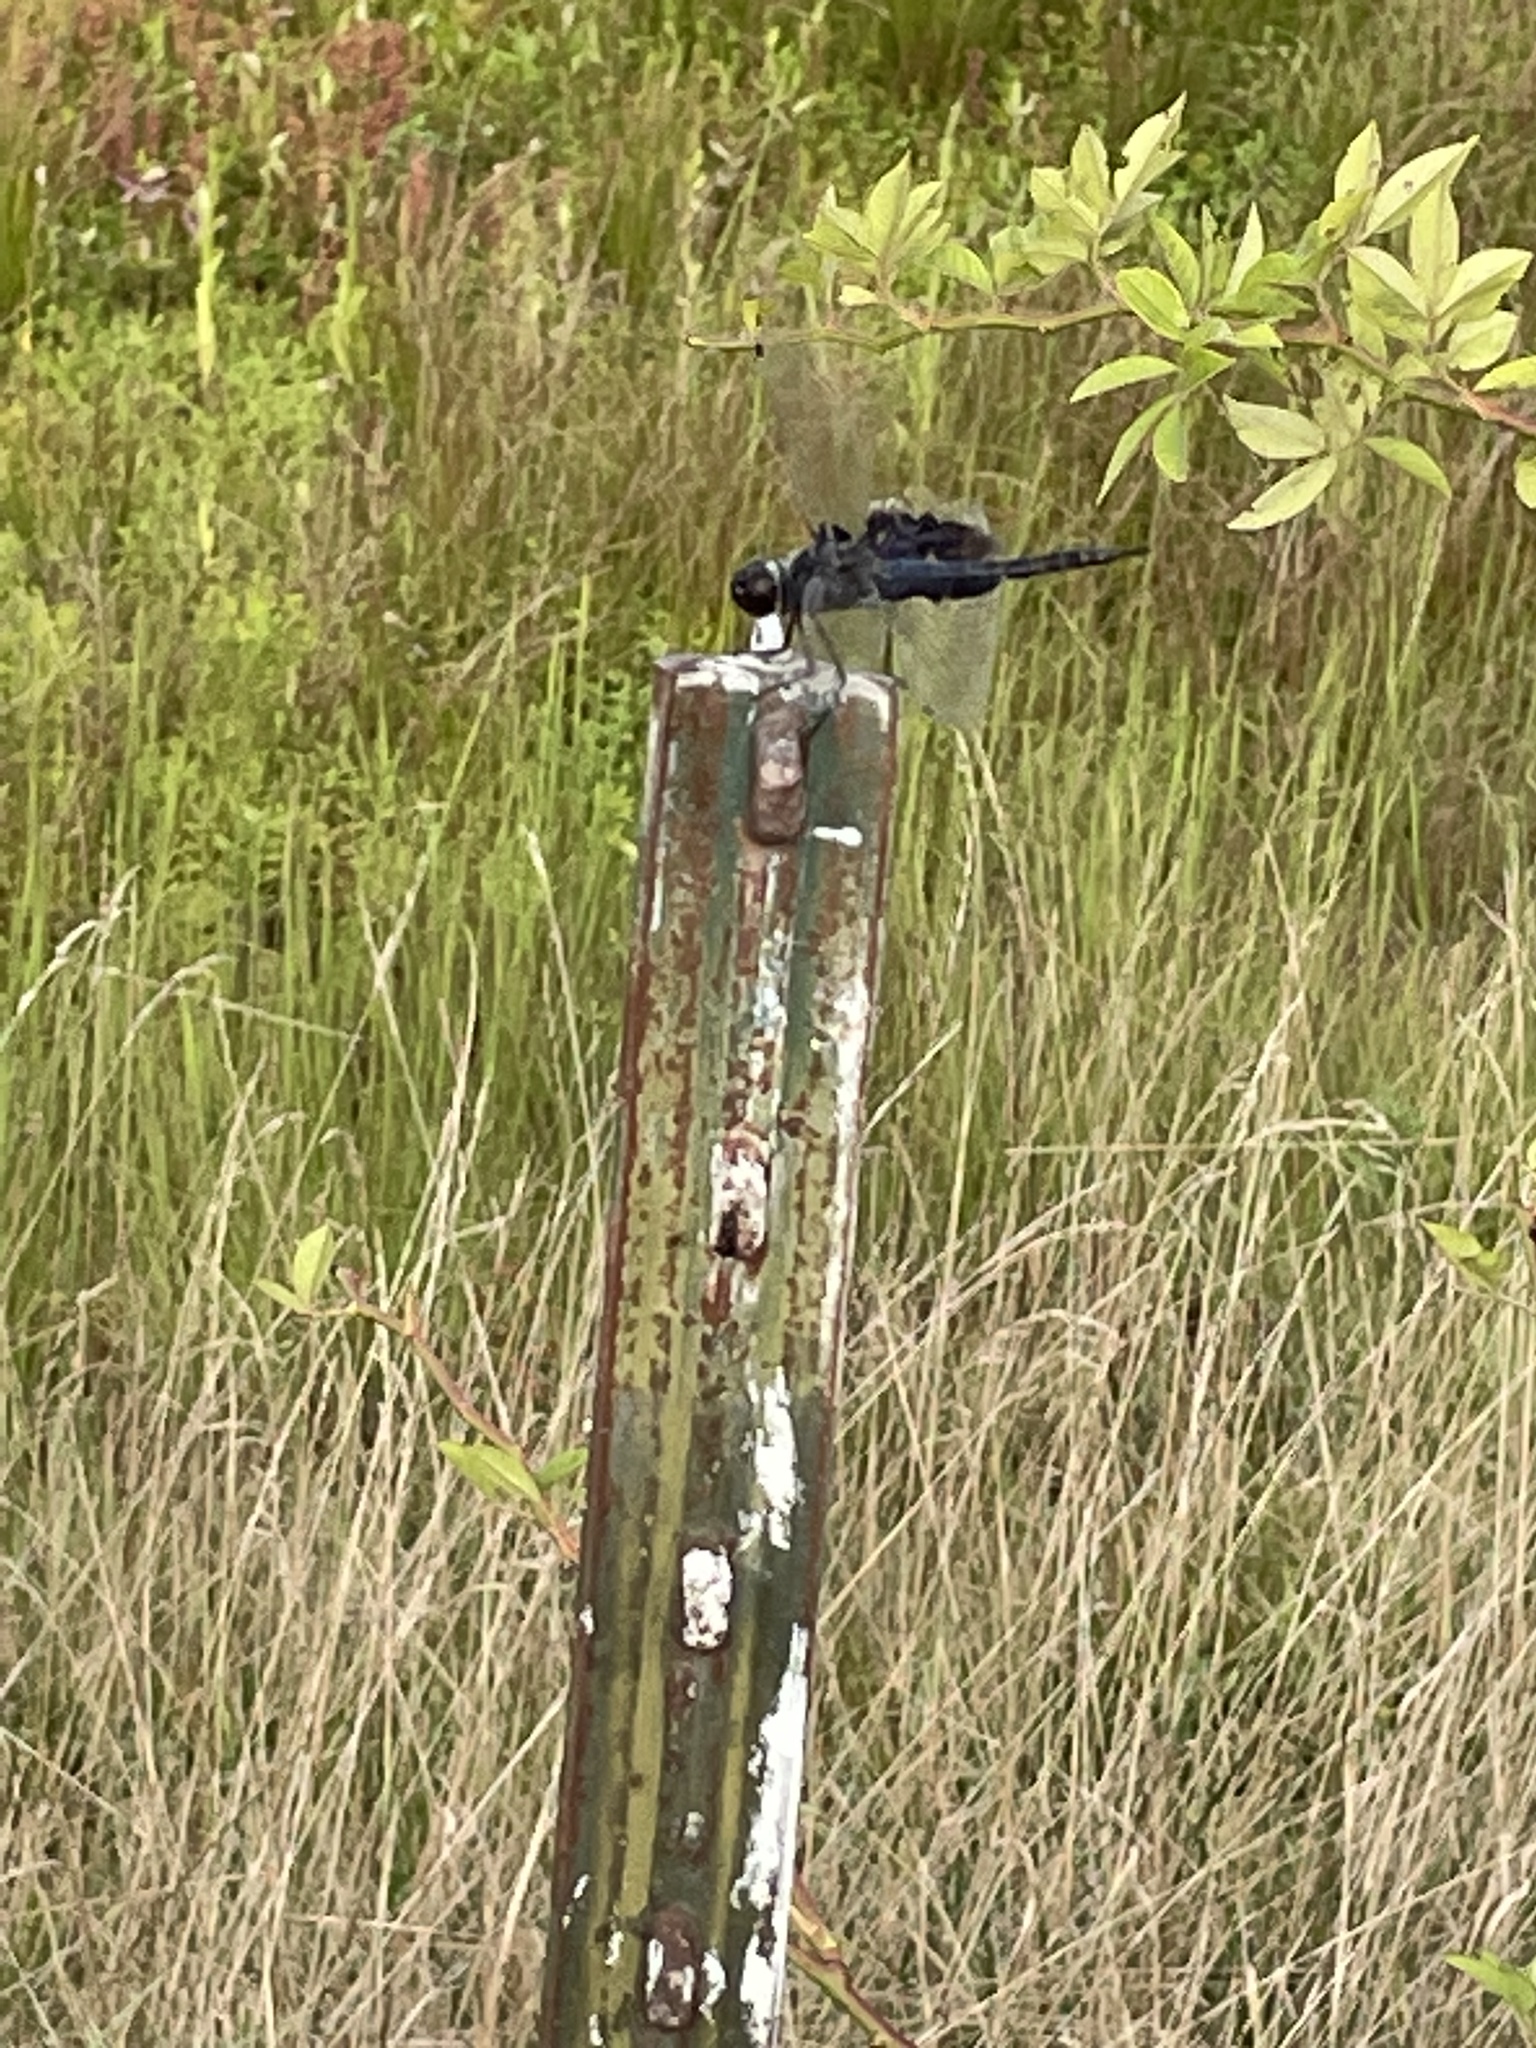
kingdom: Animalia
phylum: Arthropoda
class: Insecta
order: Odonata
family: Libellulidae
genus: Tramea
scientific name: Tramea lacerata
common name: Black saddlebags
